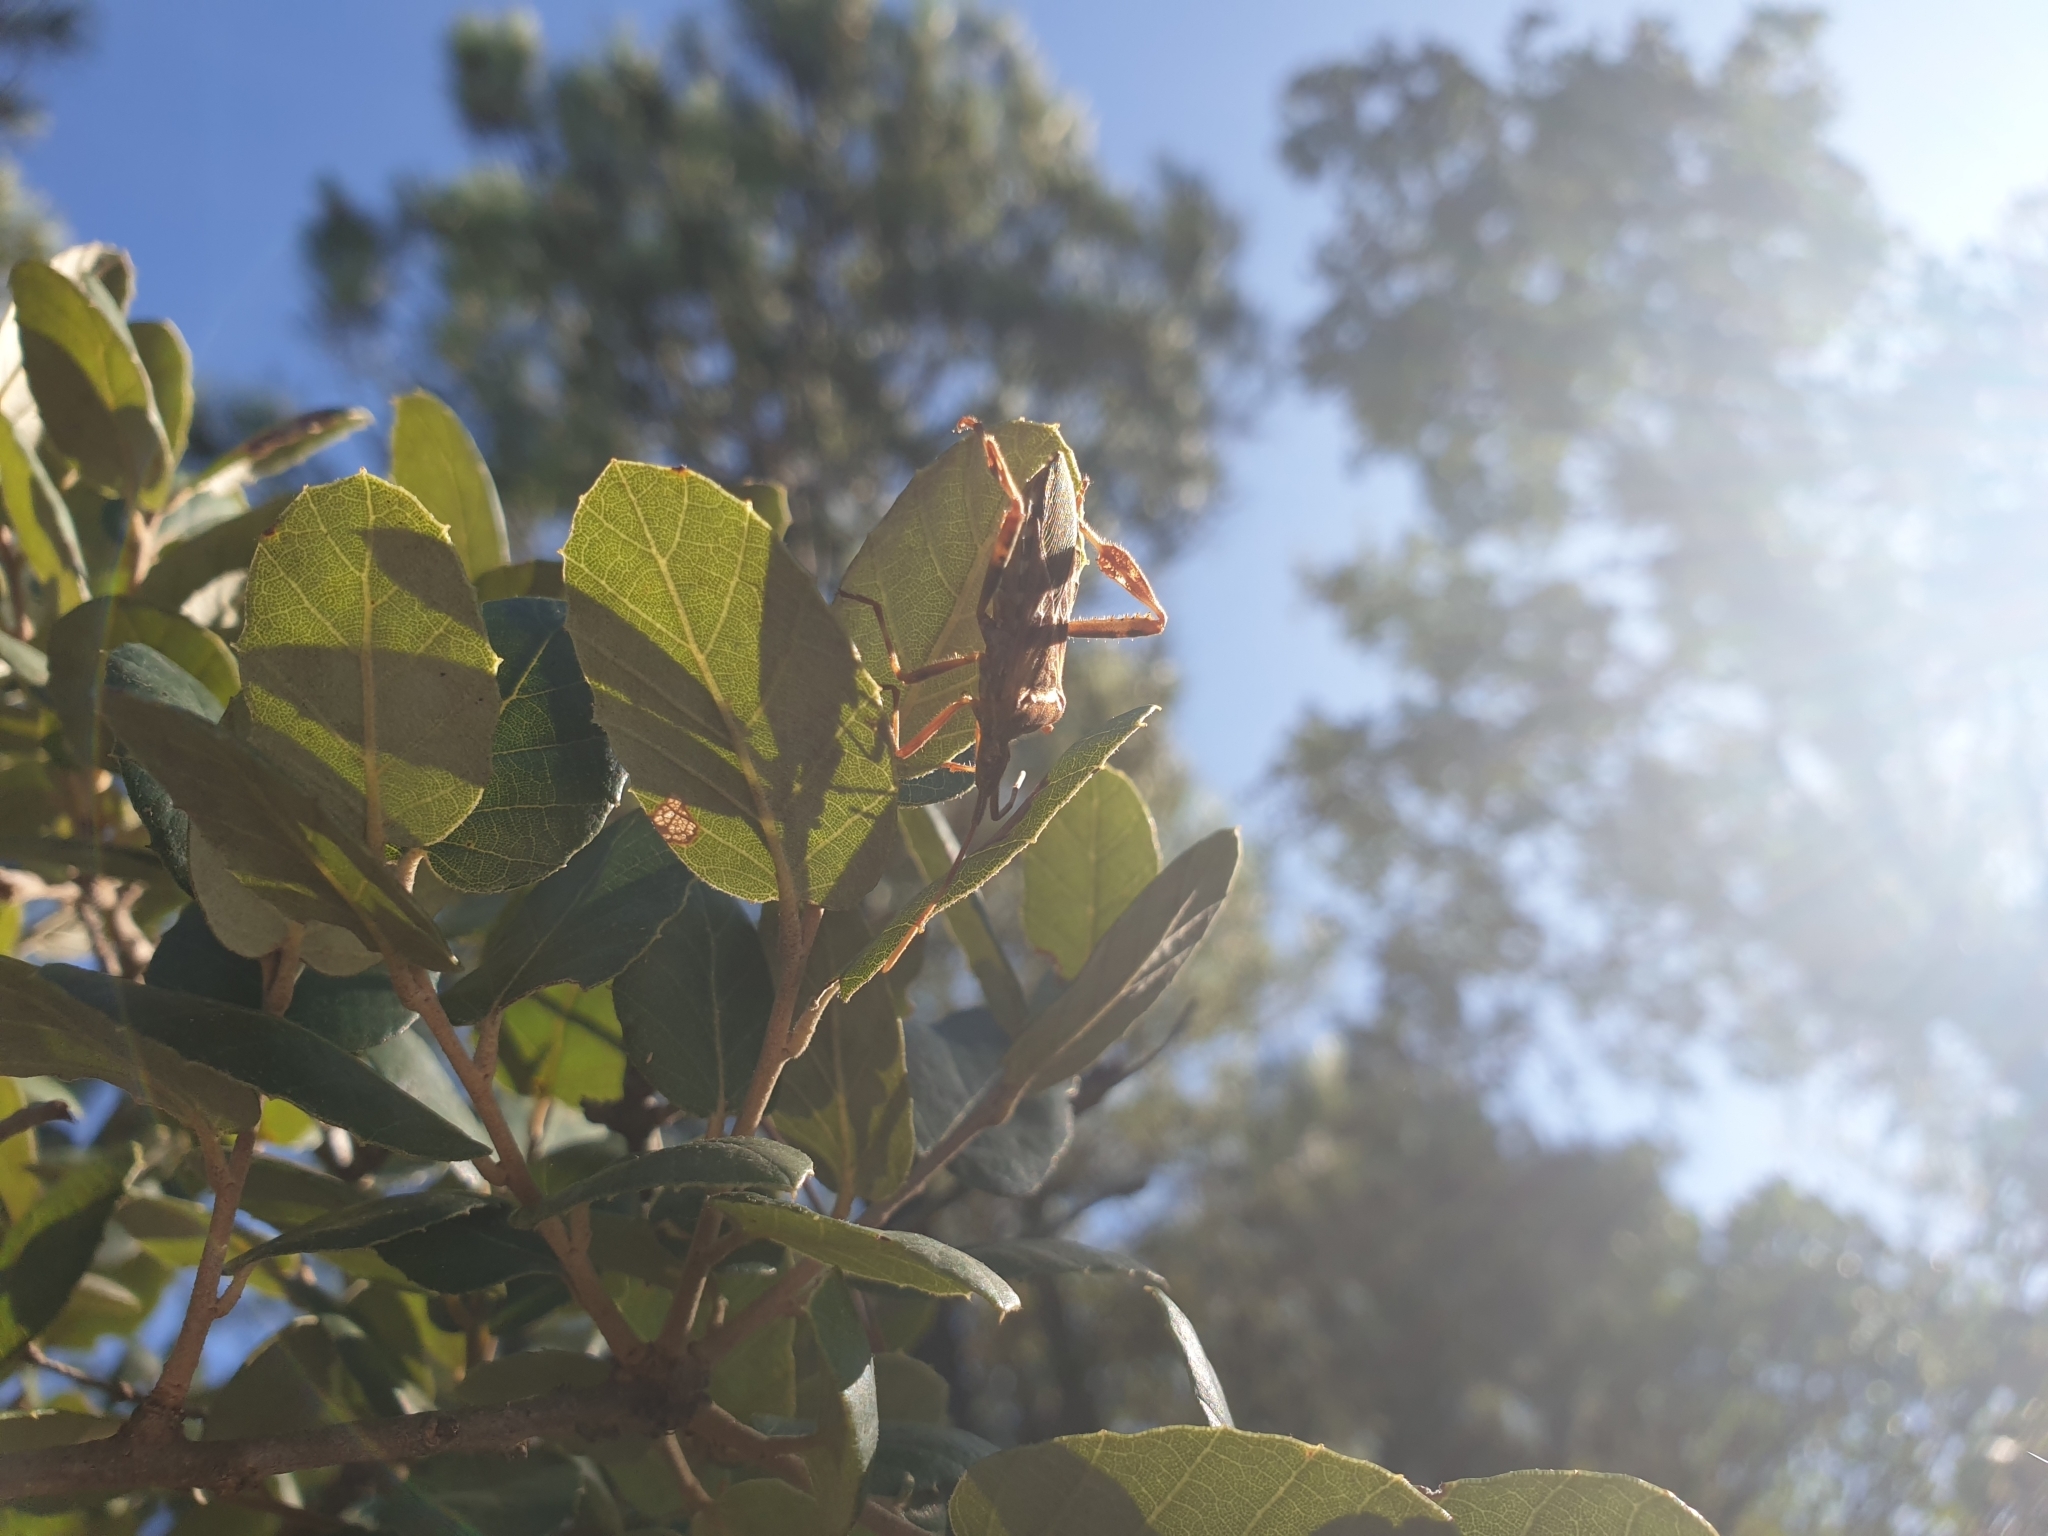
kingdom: Animalia
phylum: Arthropoda
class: Insecta
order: Hemiptera
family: Coreidae
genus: Leptoglossus
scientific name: Leptoglossus occidentalis
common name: Western conifer-seed bug
